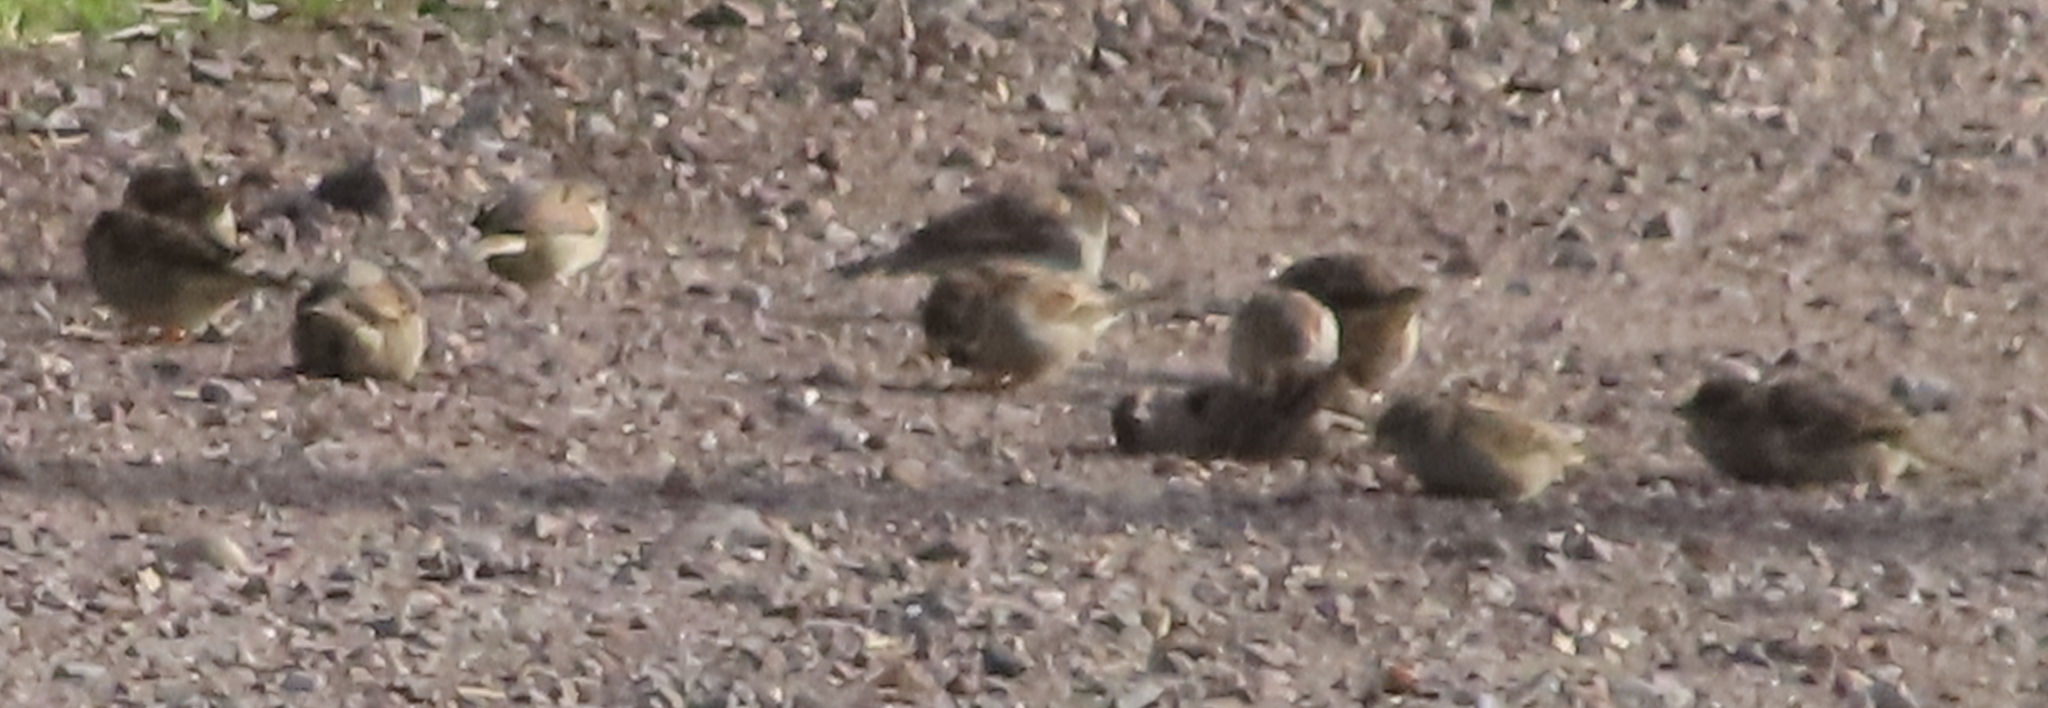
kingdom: Animalia
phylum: Chordata
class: Aves
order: Passeriformes
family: Passeridae
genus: Passer
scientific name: Passer domesticus
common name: House sparrow
